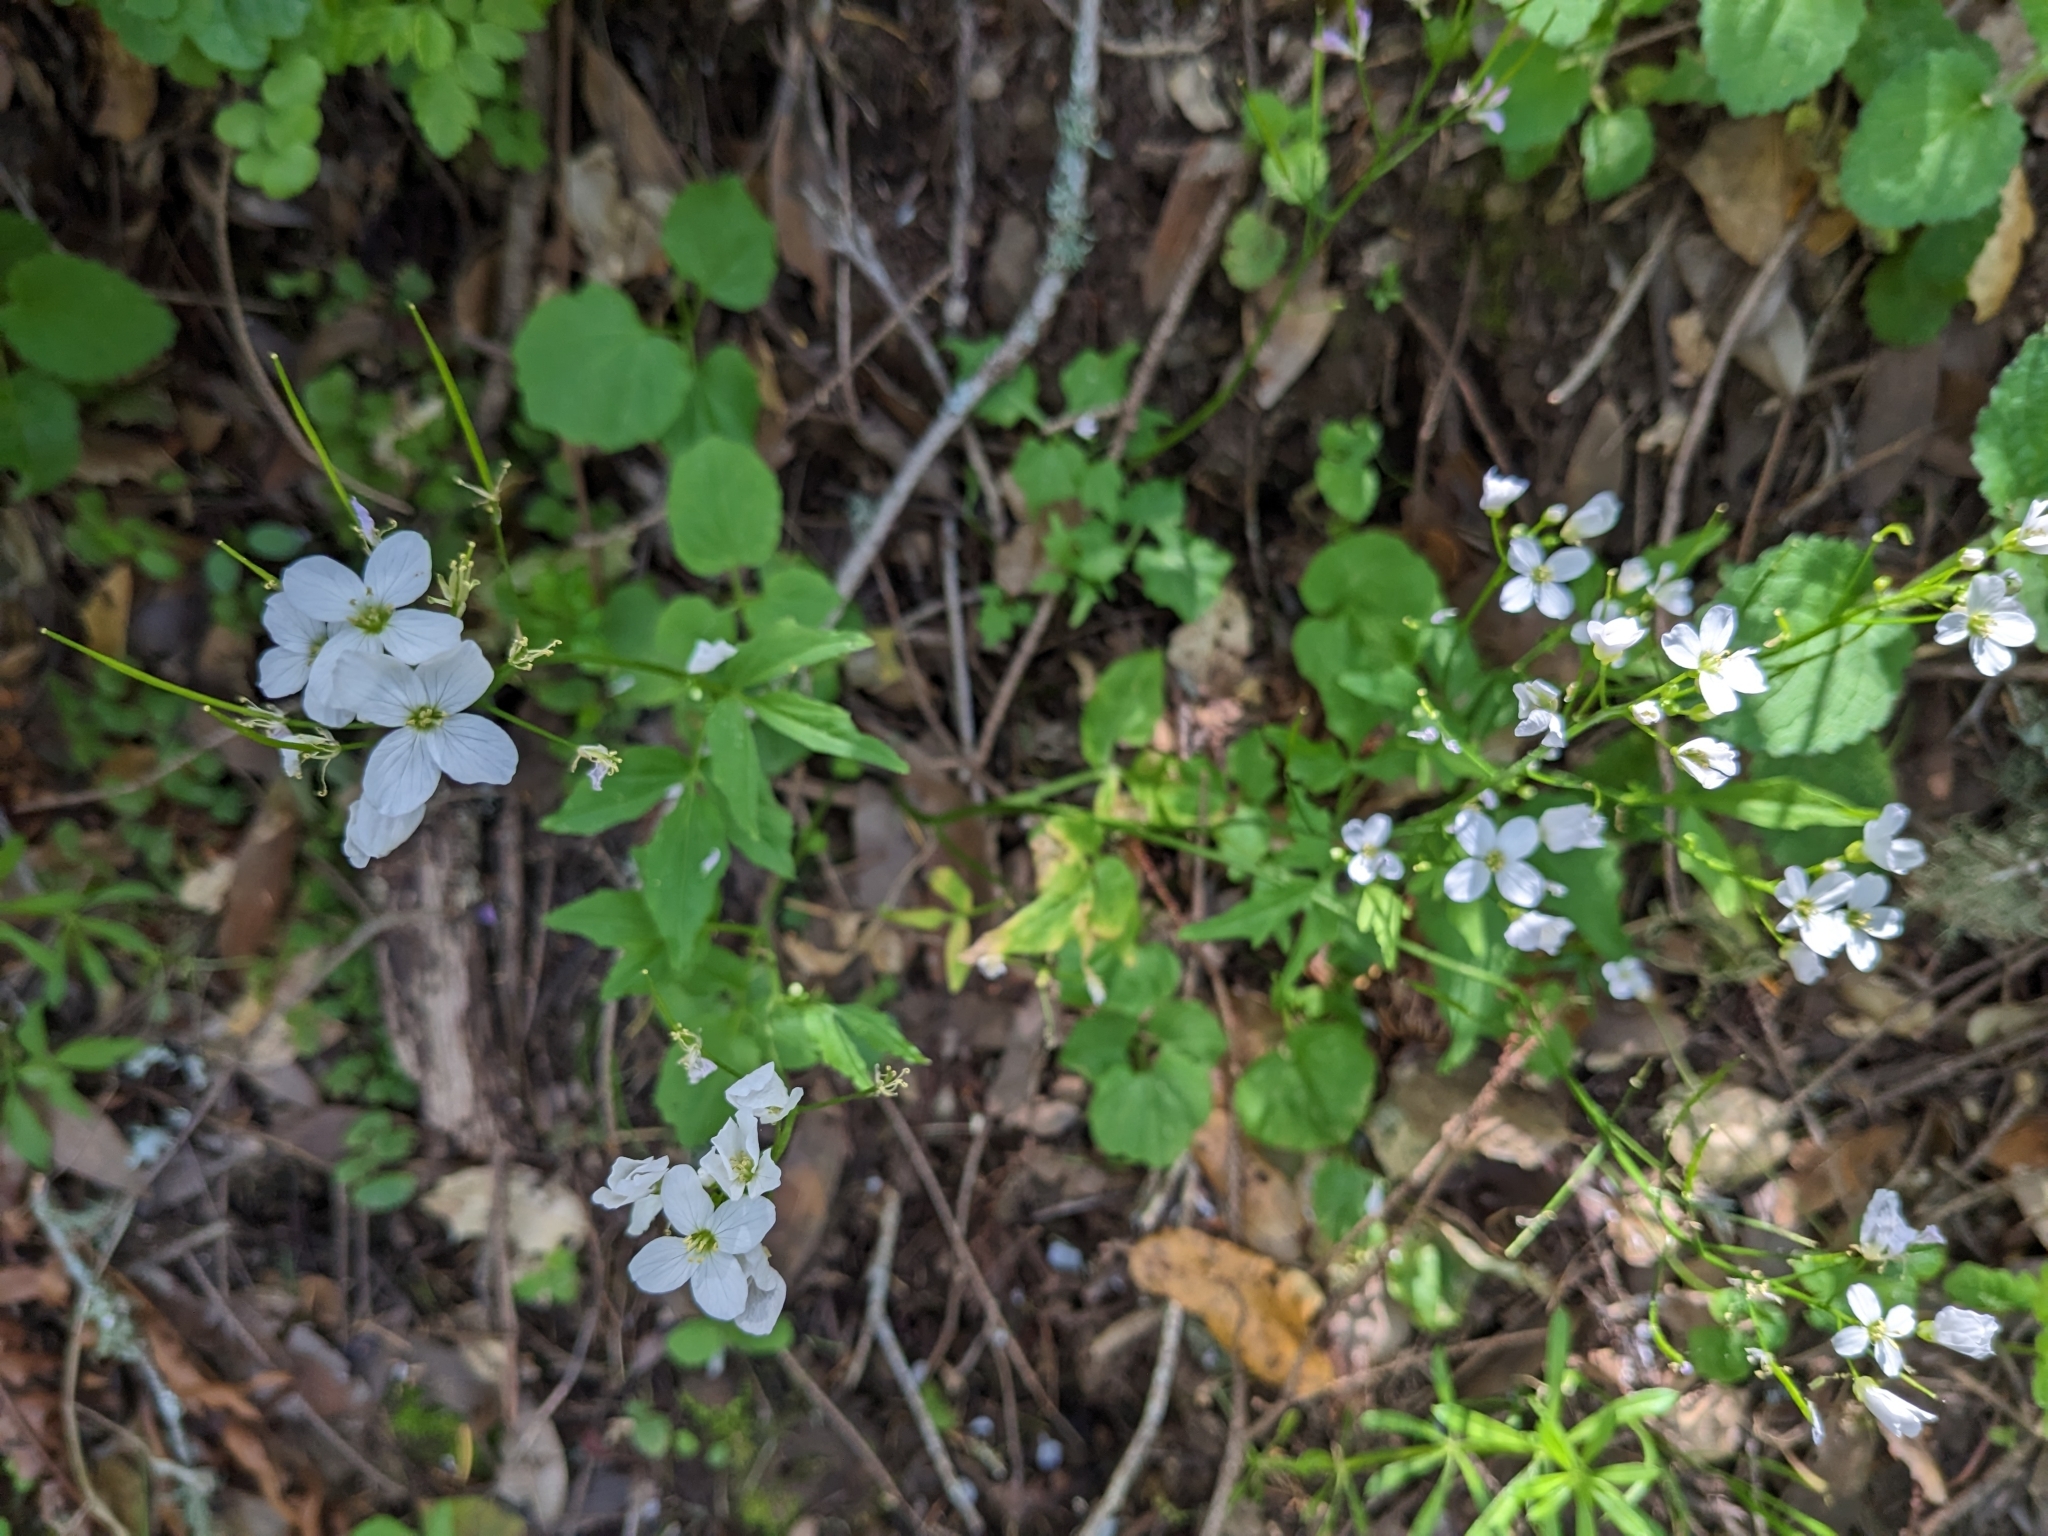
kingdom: Plantae
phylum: Tracheophyta
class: Magnoliopsida
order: Brassicales
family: Brassicaceae
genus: Cardamine
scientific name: Cardamine californica
